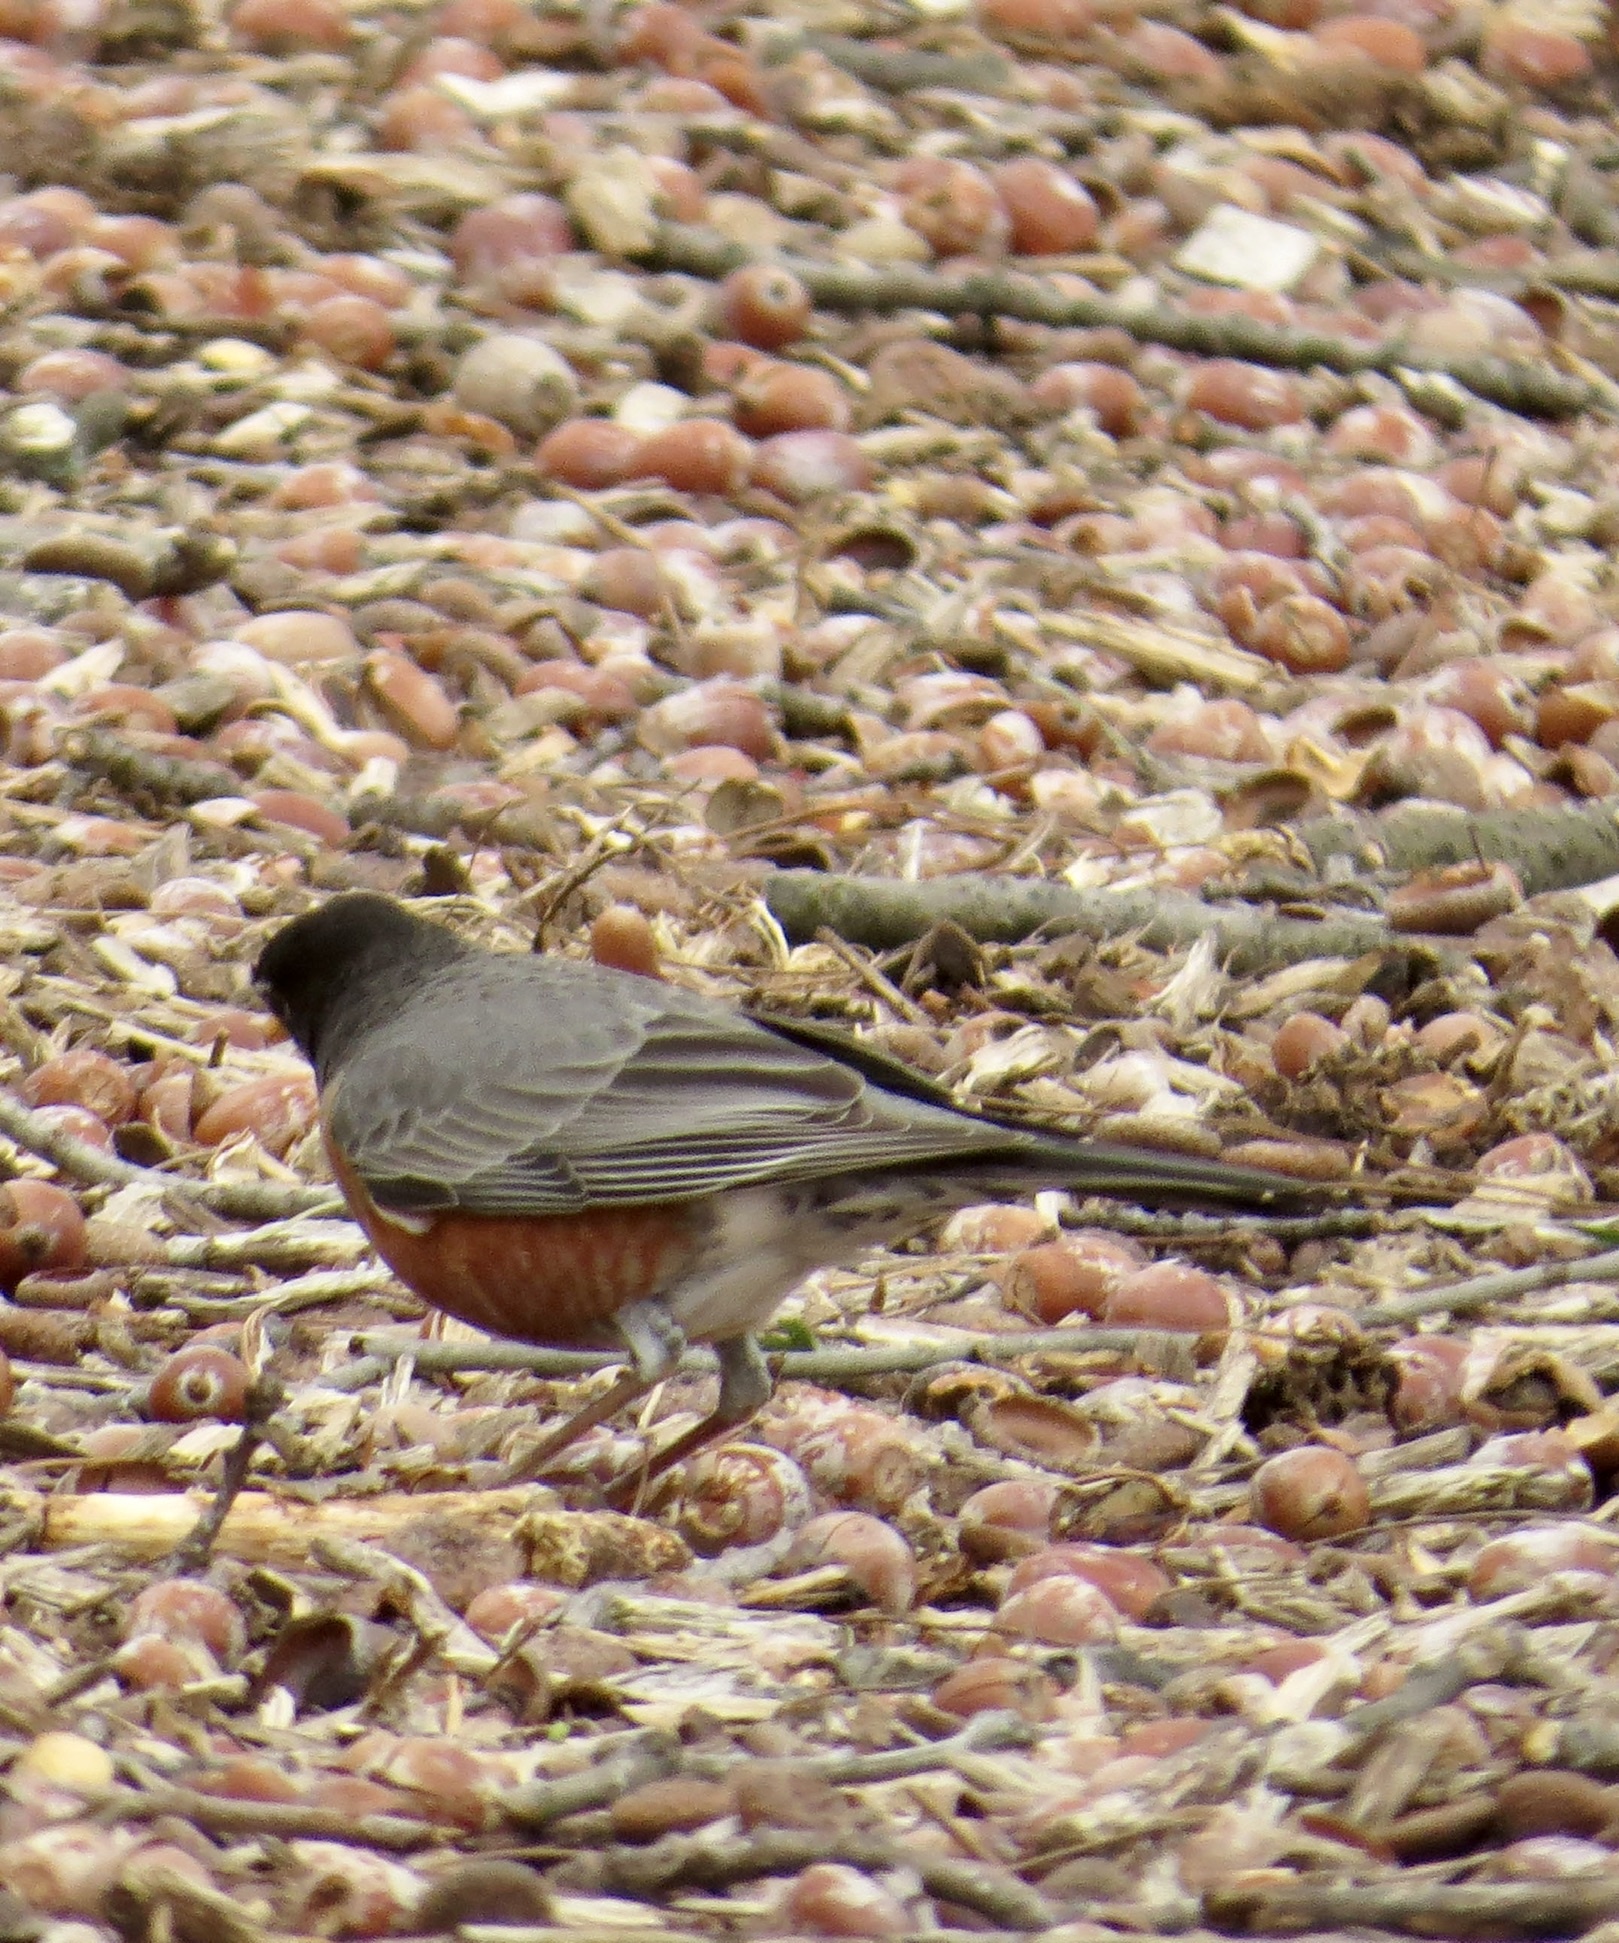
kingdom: Animalia
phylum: Chordata
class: Aves
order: Passeriformes
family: Turdidae
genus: Turdus
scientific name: Turdus migratorius
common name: American robin
